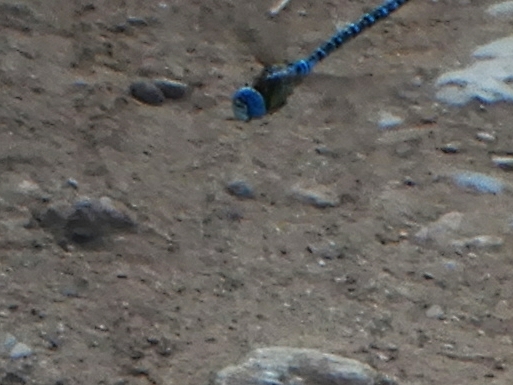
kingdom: Animalia
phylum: Arthropoda
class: Insecta
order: Odonata
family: Aeshnidae
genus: Aeshna
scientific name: Aeshna affinis
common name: Southern migrant hawker
